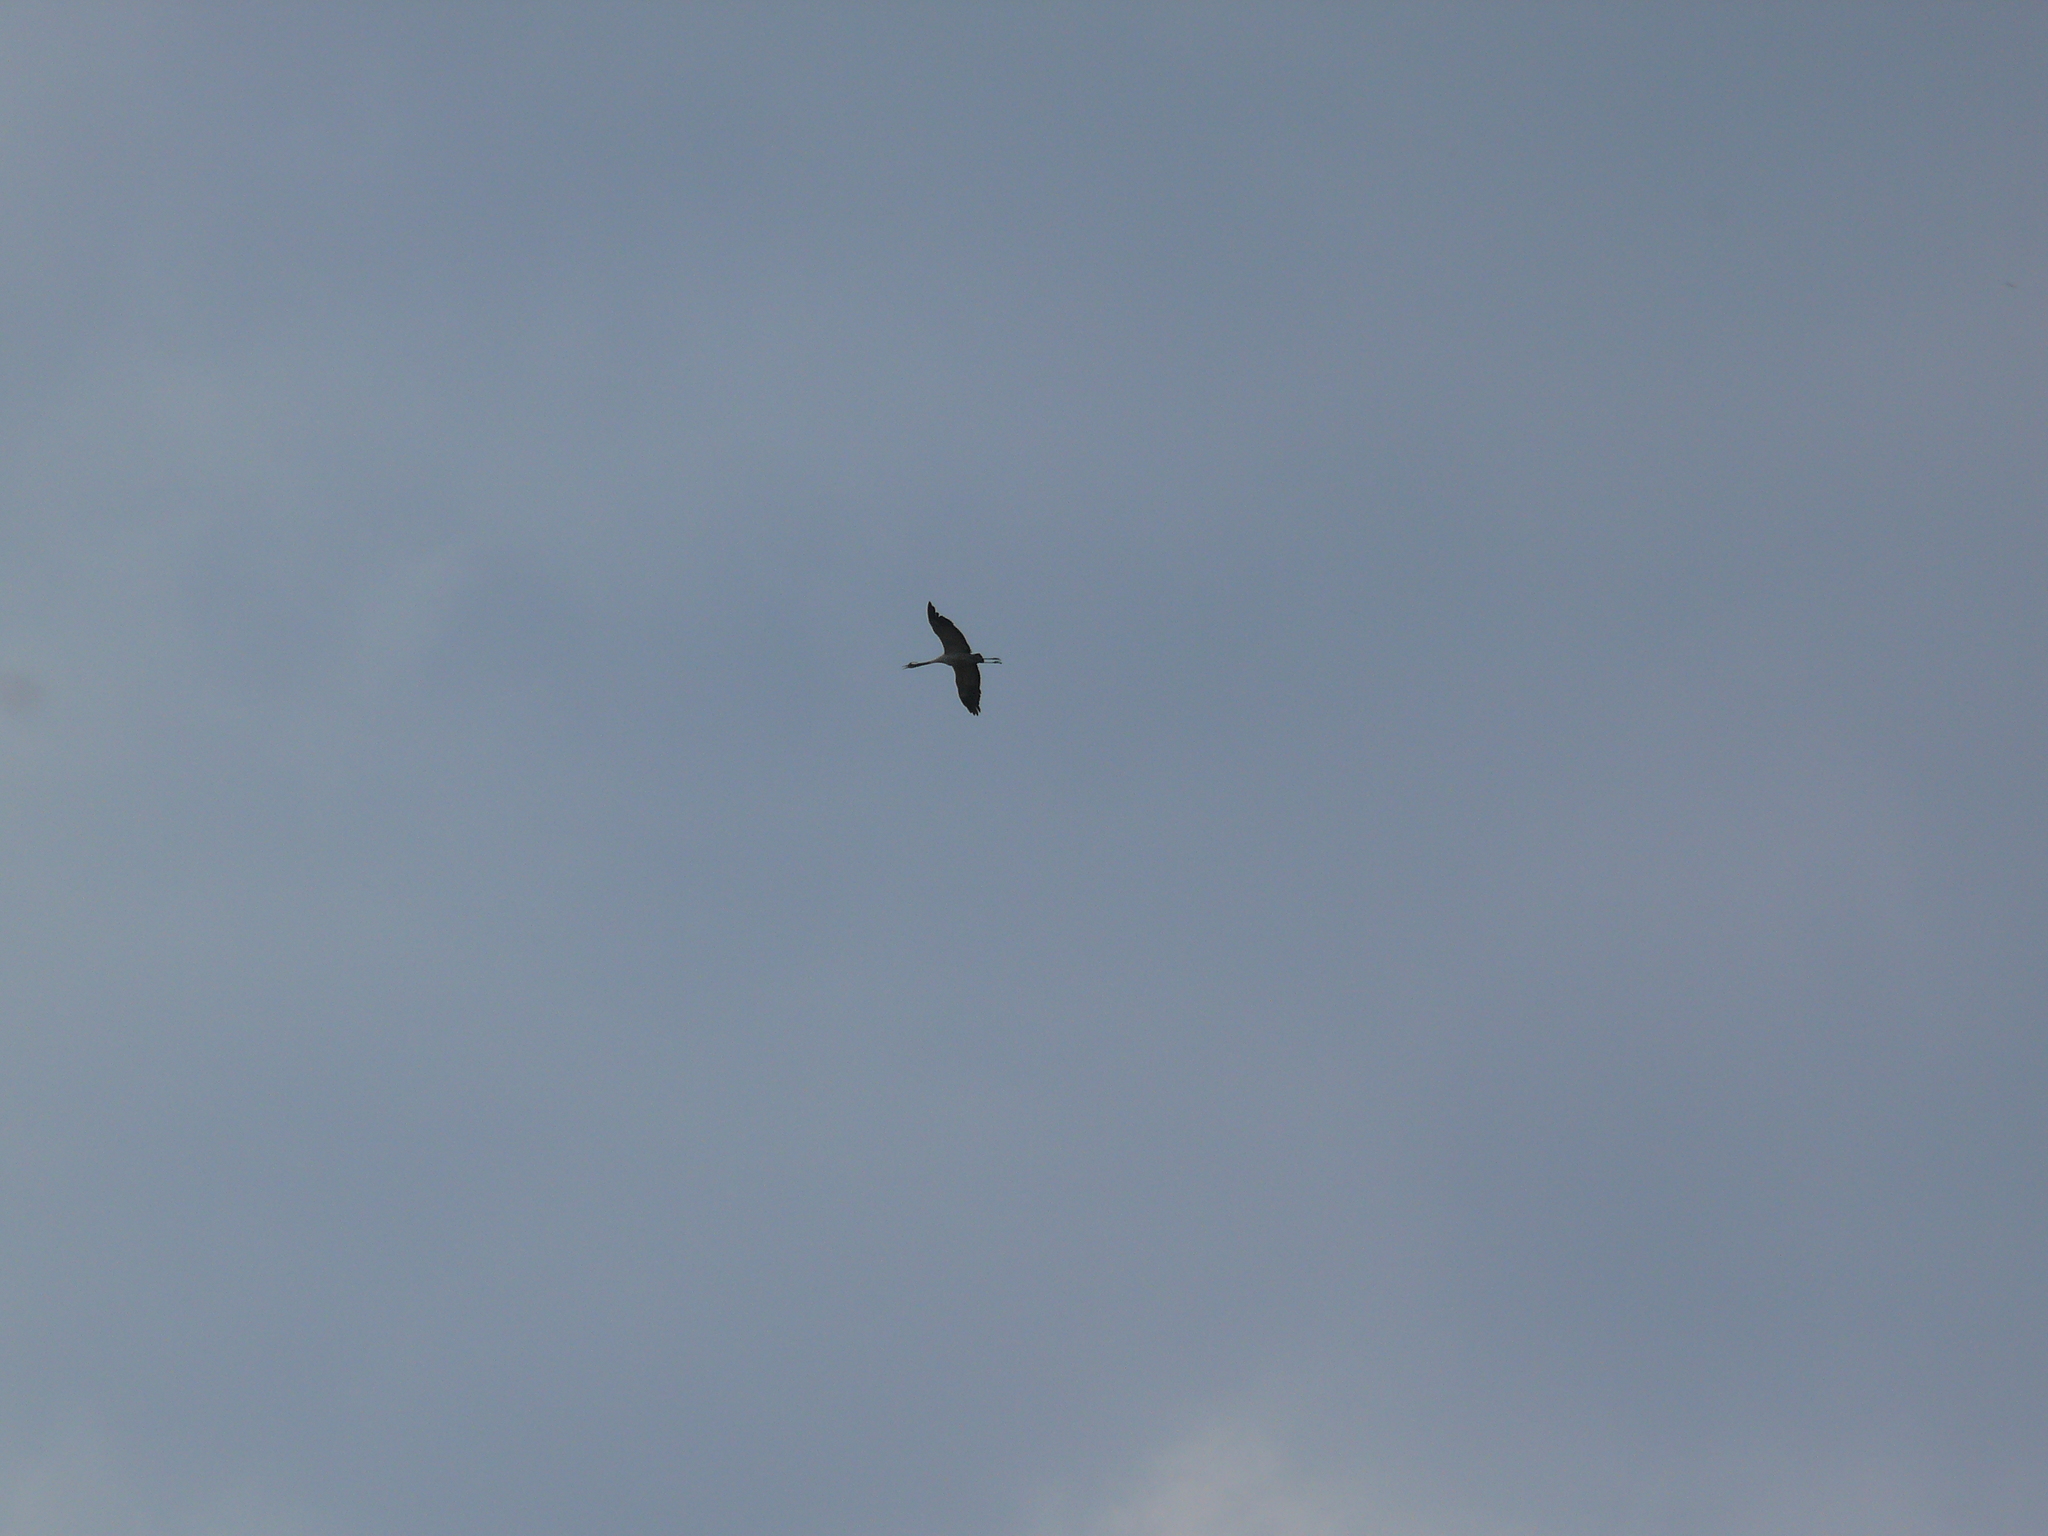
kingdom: Animalia
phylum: Chordata
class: Aves
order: Gruiformes
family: Gruidae
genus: Grus
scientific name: Grus grus
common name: Common crane
